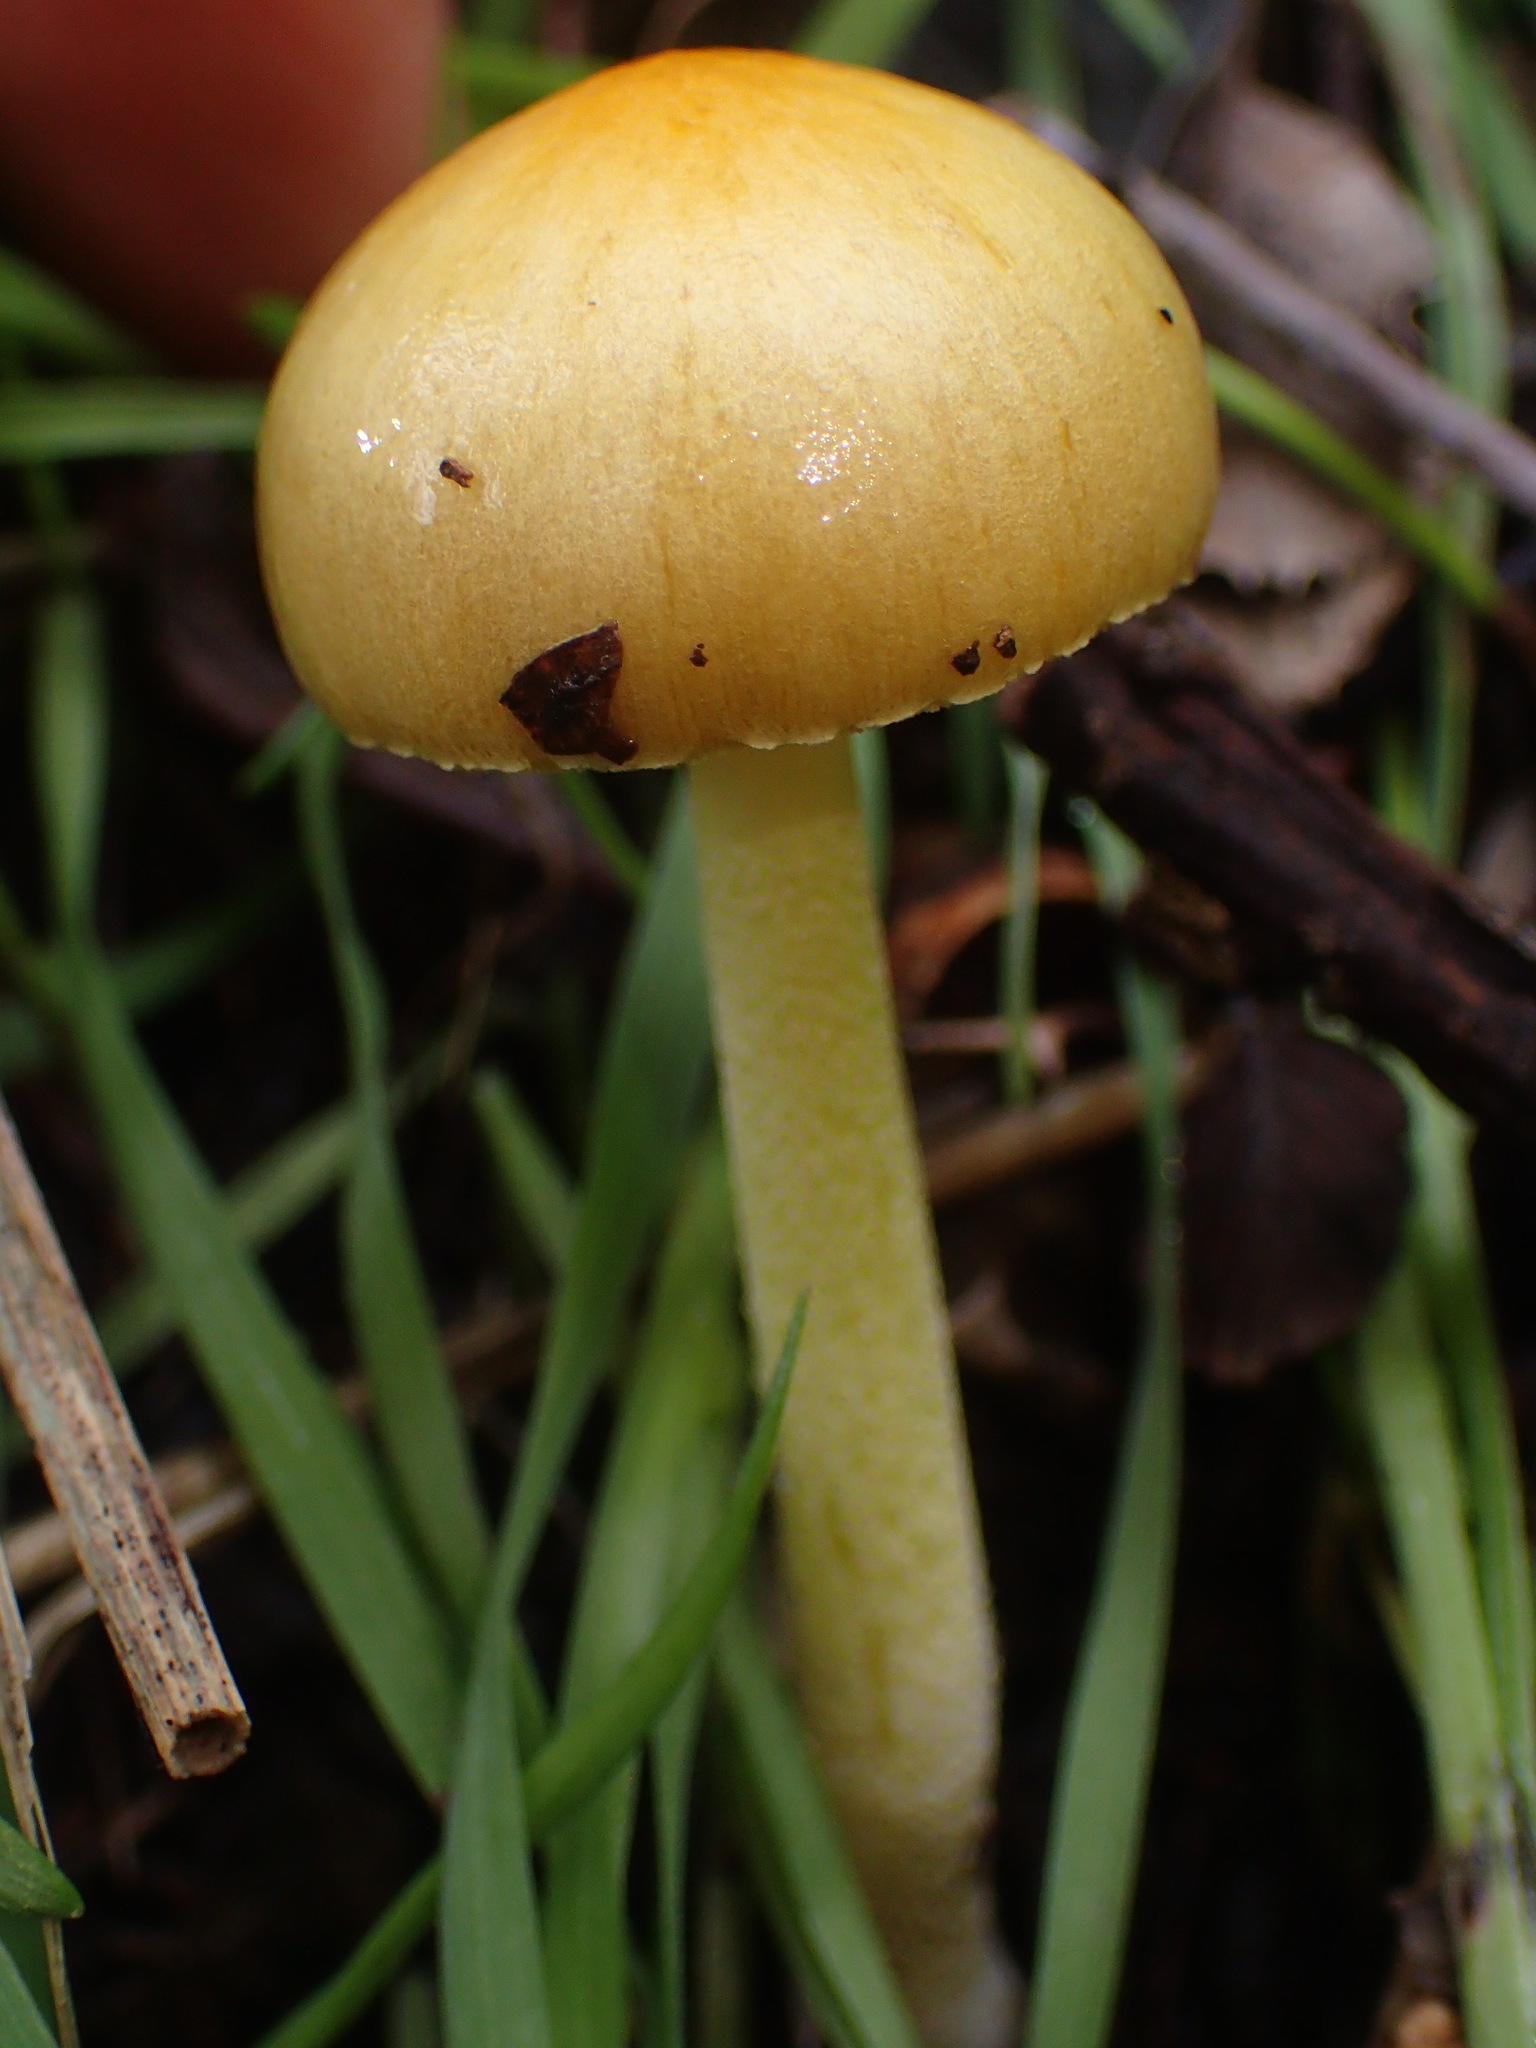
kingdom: Fungi
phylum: Basidiomycota
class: Agaricomycetes
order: Agaricales
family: Bolbitiaceae
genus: Bolbitius
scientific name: Bolbitius titubans
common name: Yellow fieldcap
